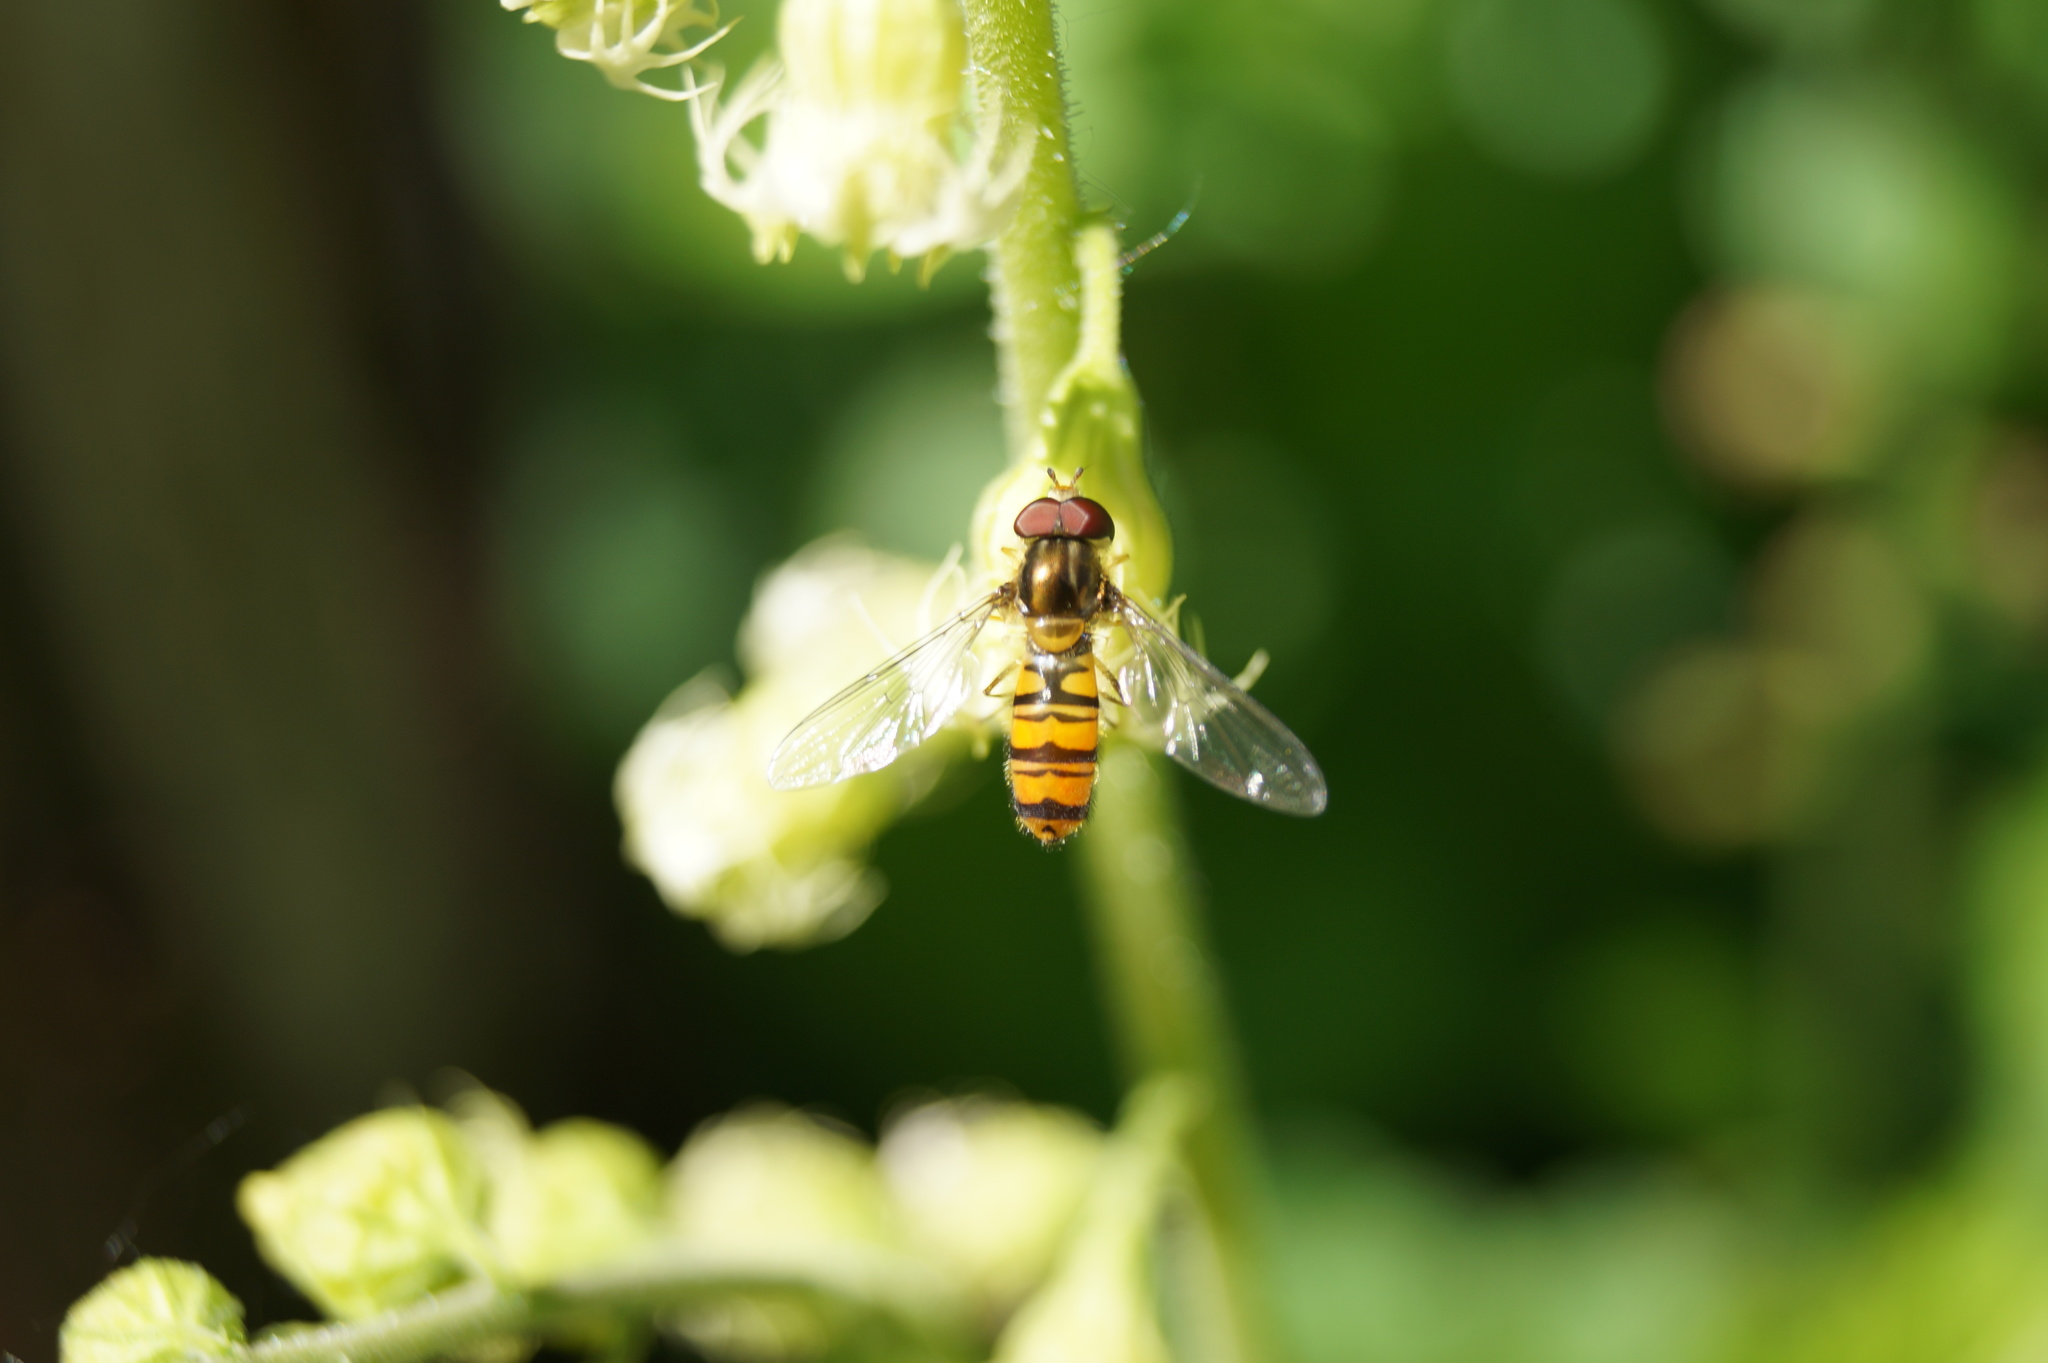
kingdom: Animalia
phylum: Arthropoda
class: Insecta
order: Diptera
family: Syrphidae
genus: Episyrphus
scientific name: Episyrphus balteatus
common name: Marmalade hoverfly
